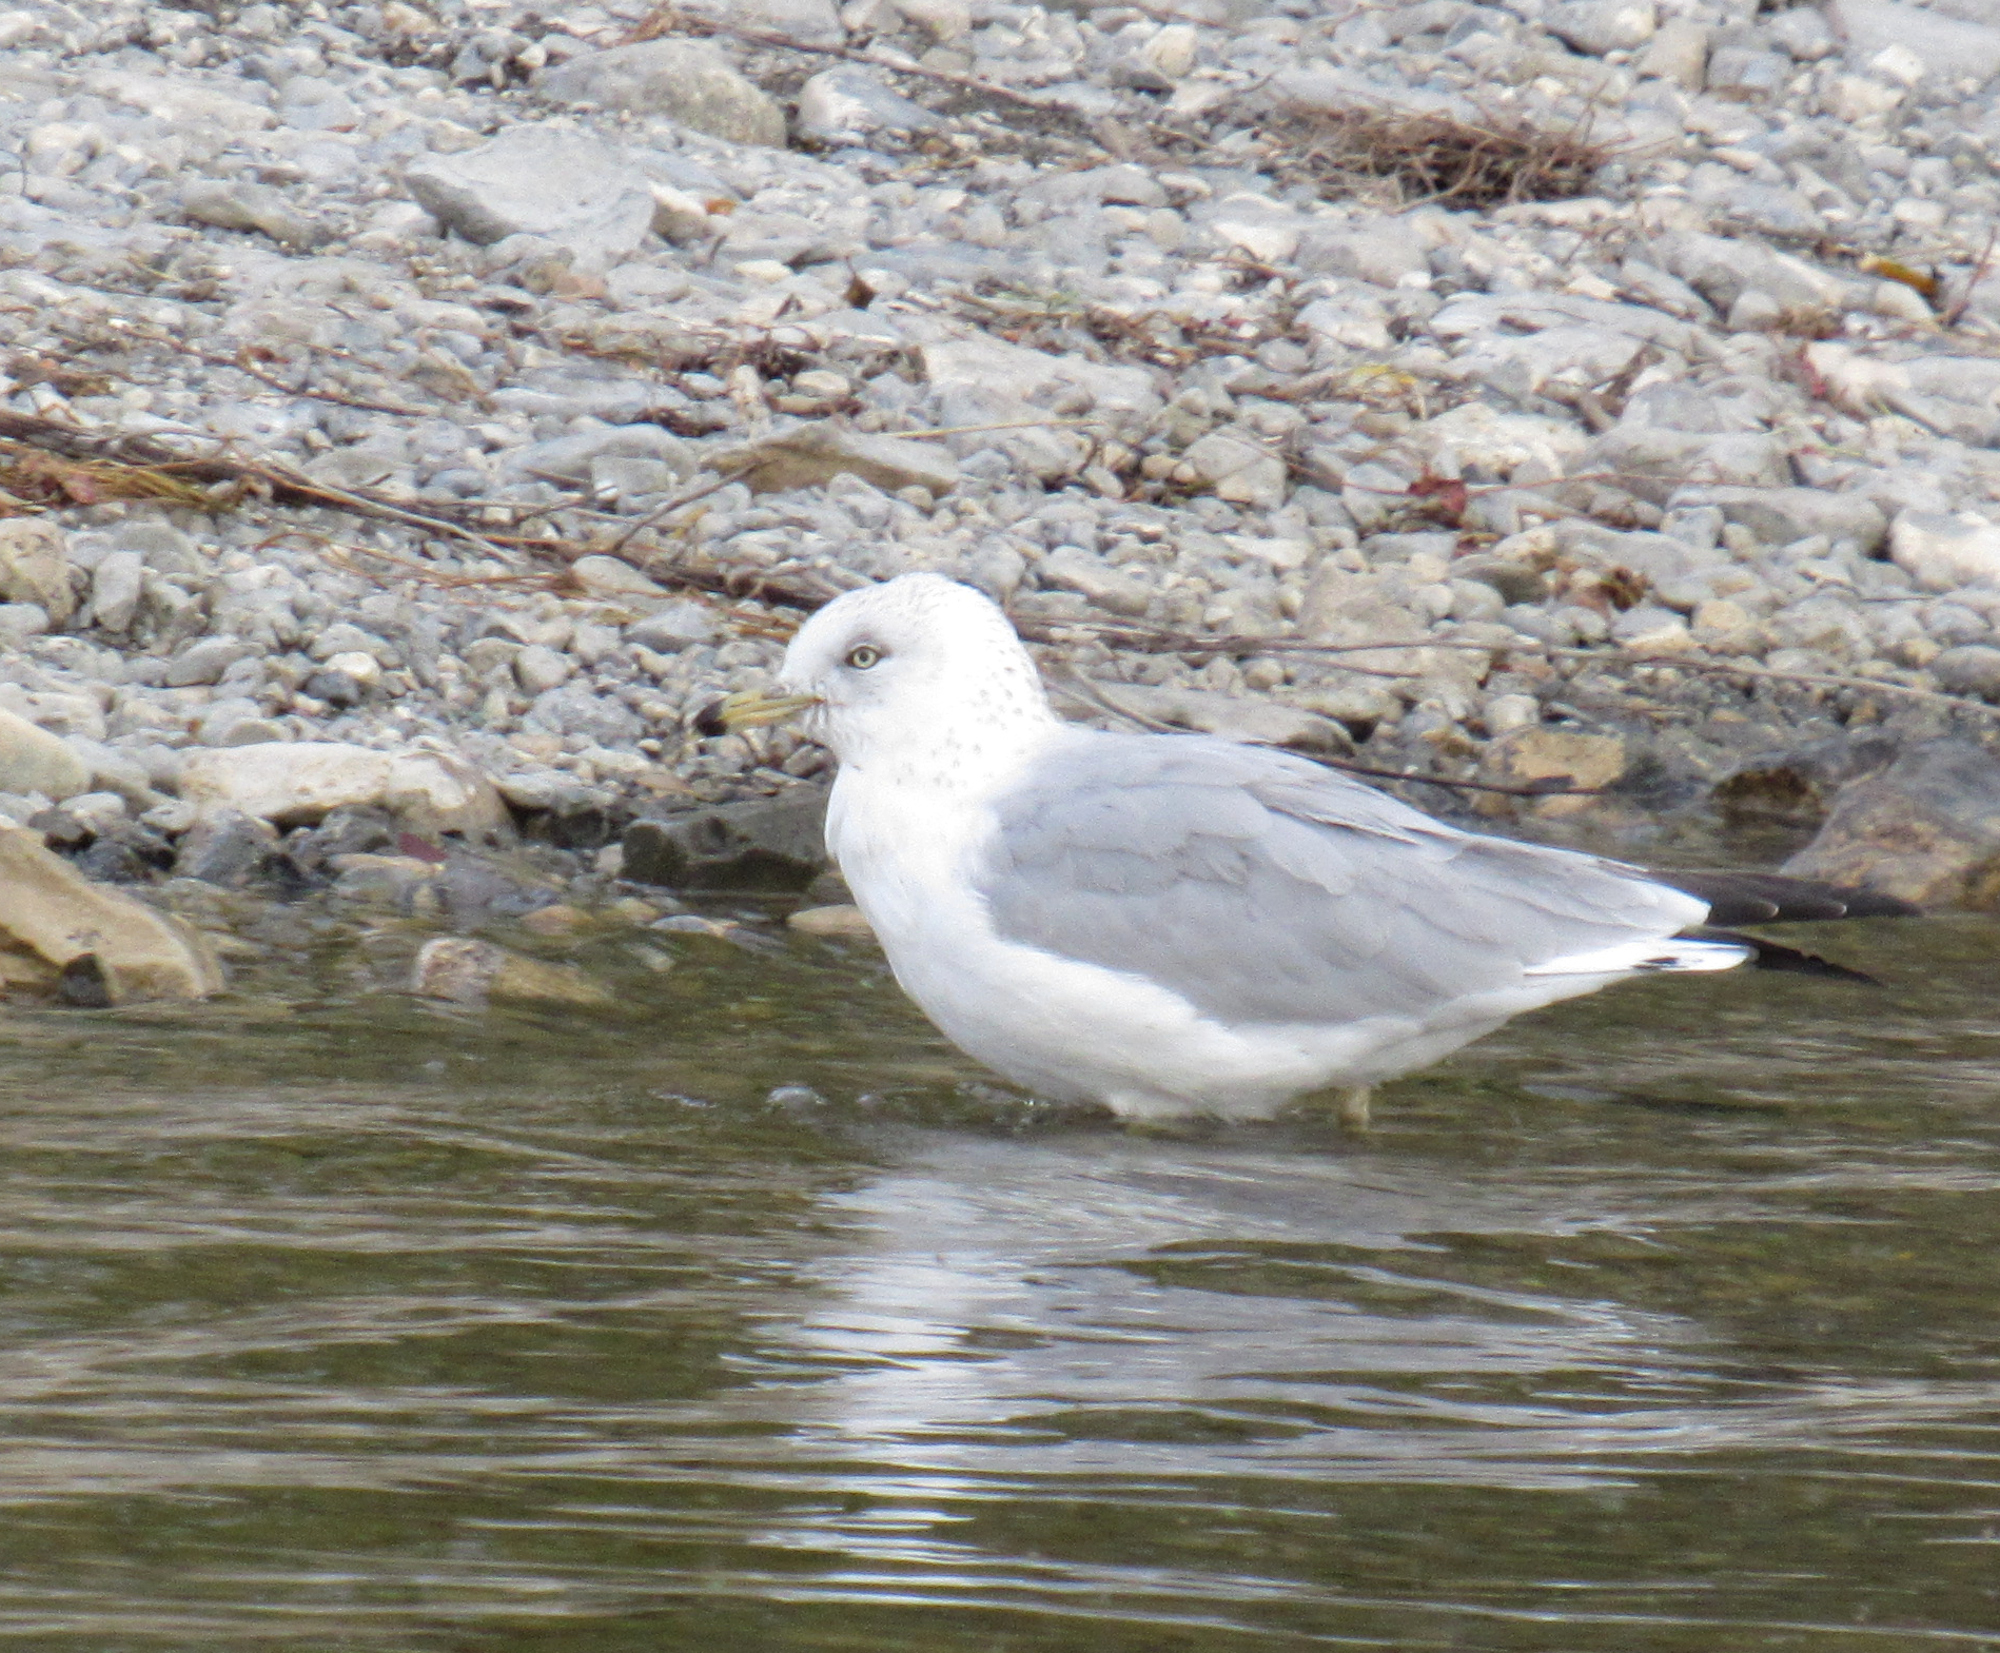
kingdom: Animalia
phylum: Chordata
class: Aves
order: Charadriiformes
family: Laridae
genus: Larus
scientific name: Larus delawarensis
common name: Ring-billed gull
